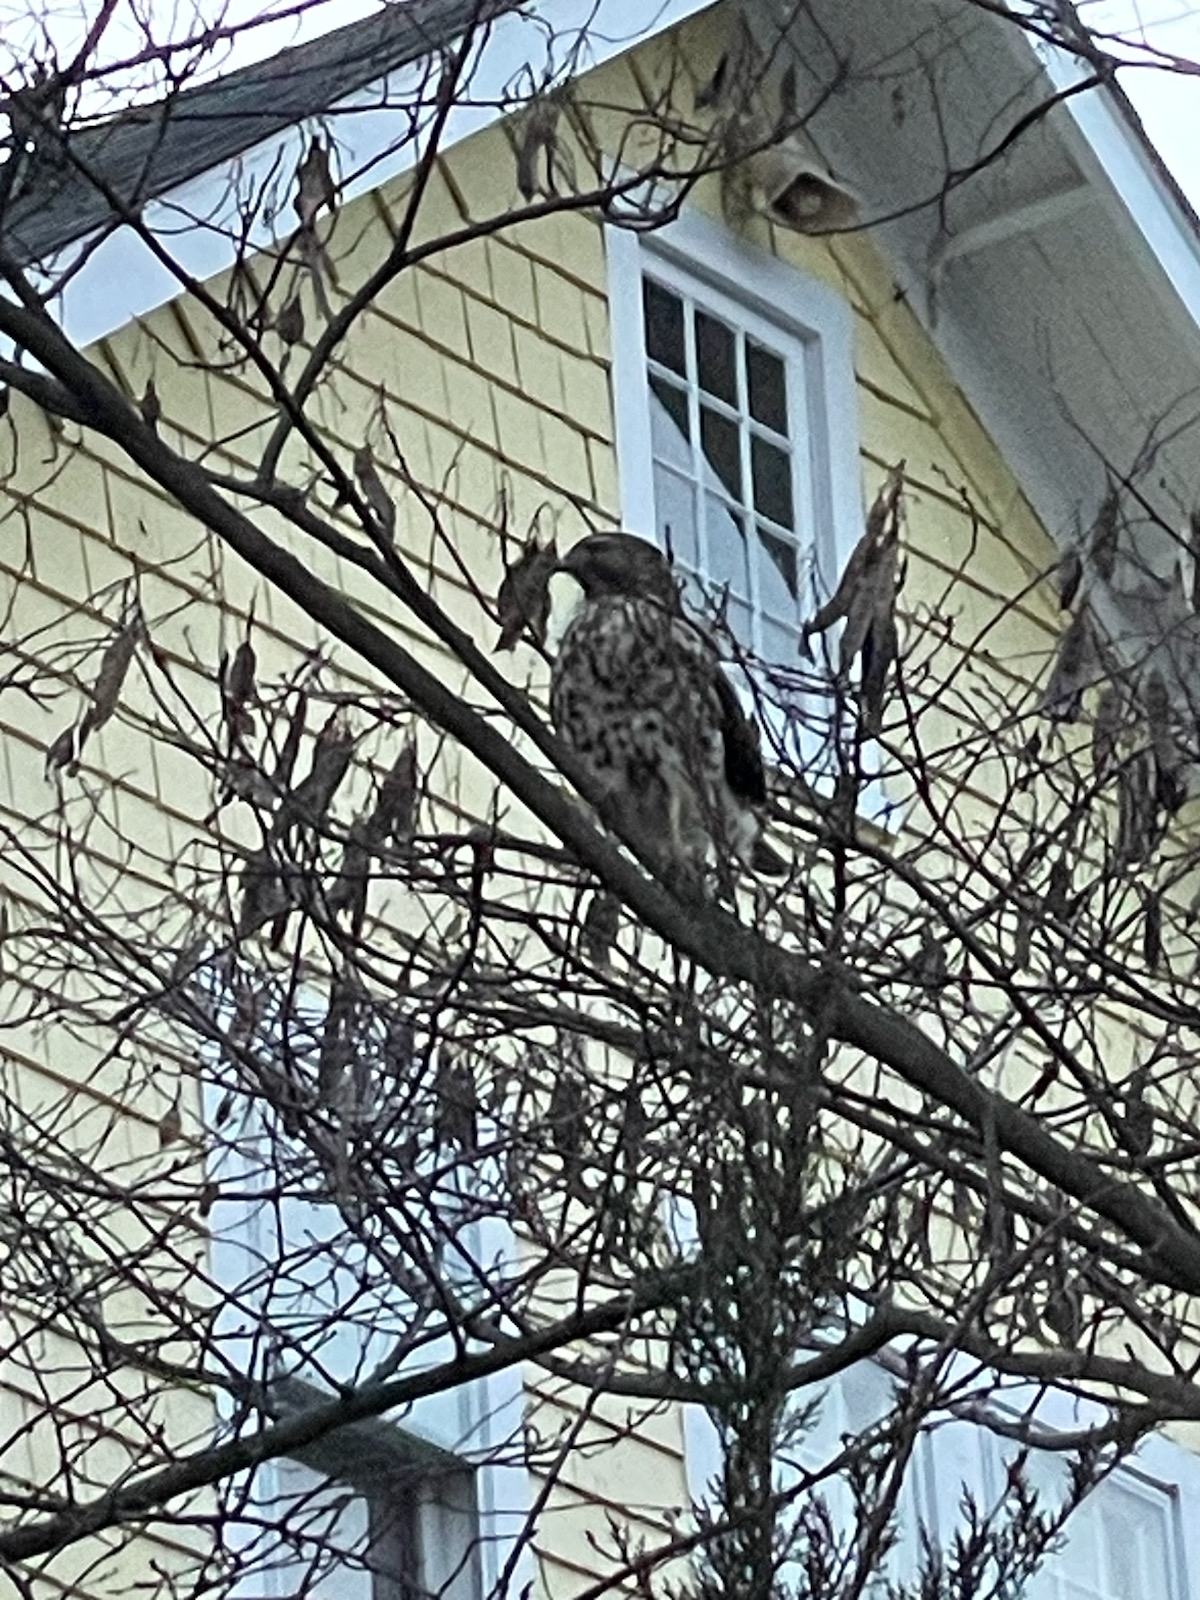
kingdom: Animalia
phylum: Chordata
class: Aves
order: Accipitriformes
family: Accipitridae
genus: Buteo
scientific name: Buteo lineatus
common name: Red-shouldered hawk
